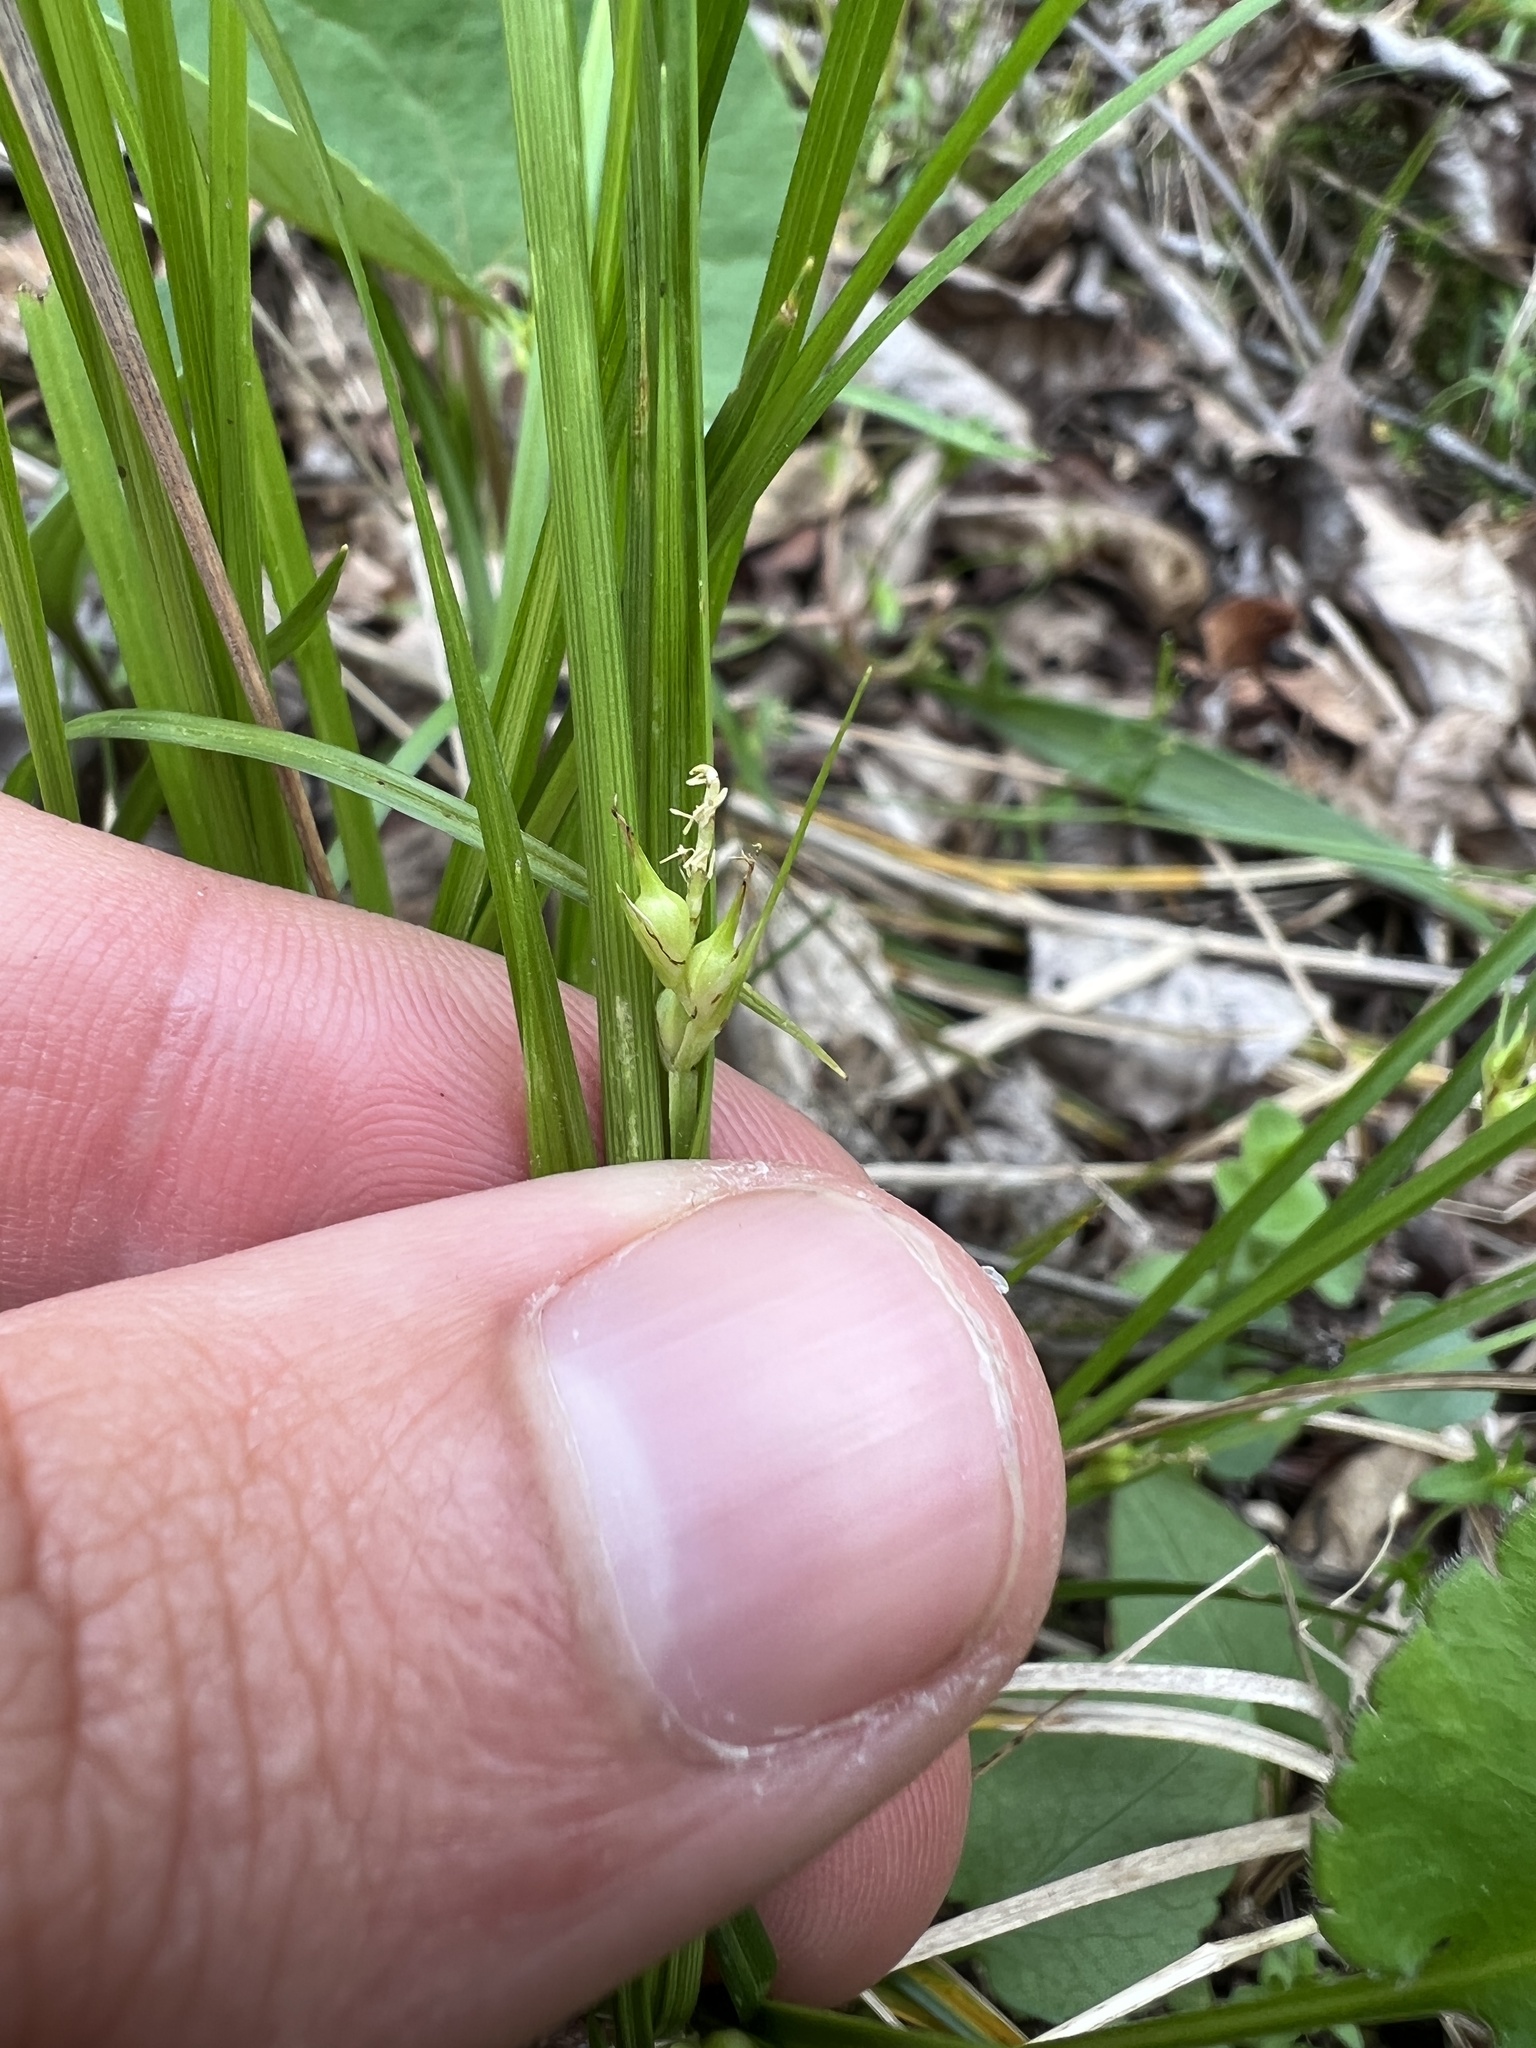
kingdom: Plantae
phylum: Tracheophyta
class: Liliopsida
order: Poales
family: Cyperaceae
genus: Carex
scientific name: Carex jamesii
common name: Grass sedge
